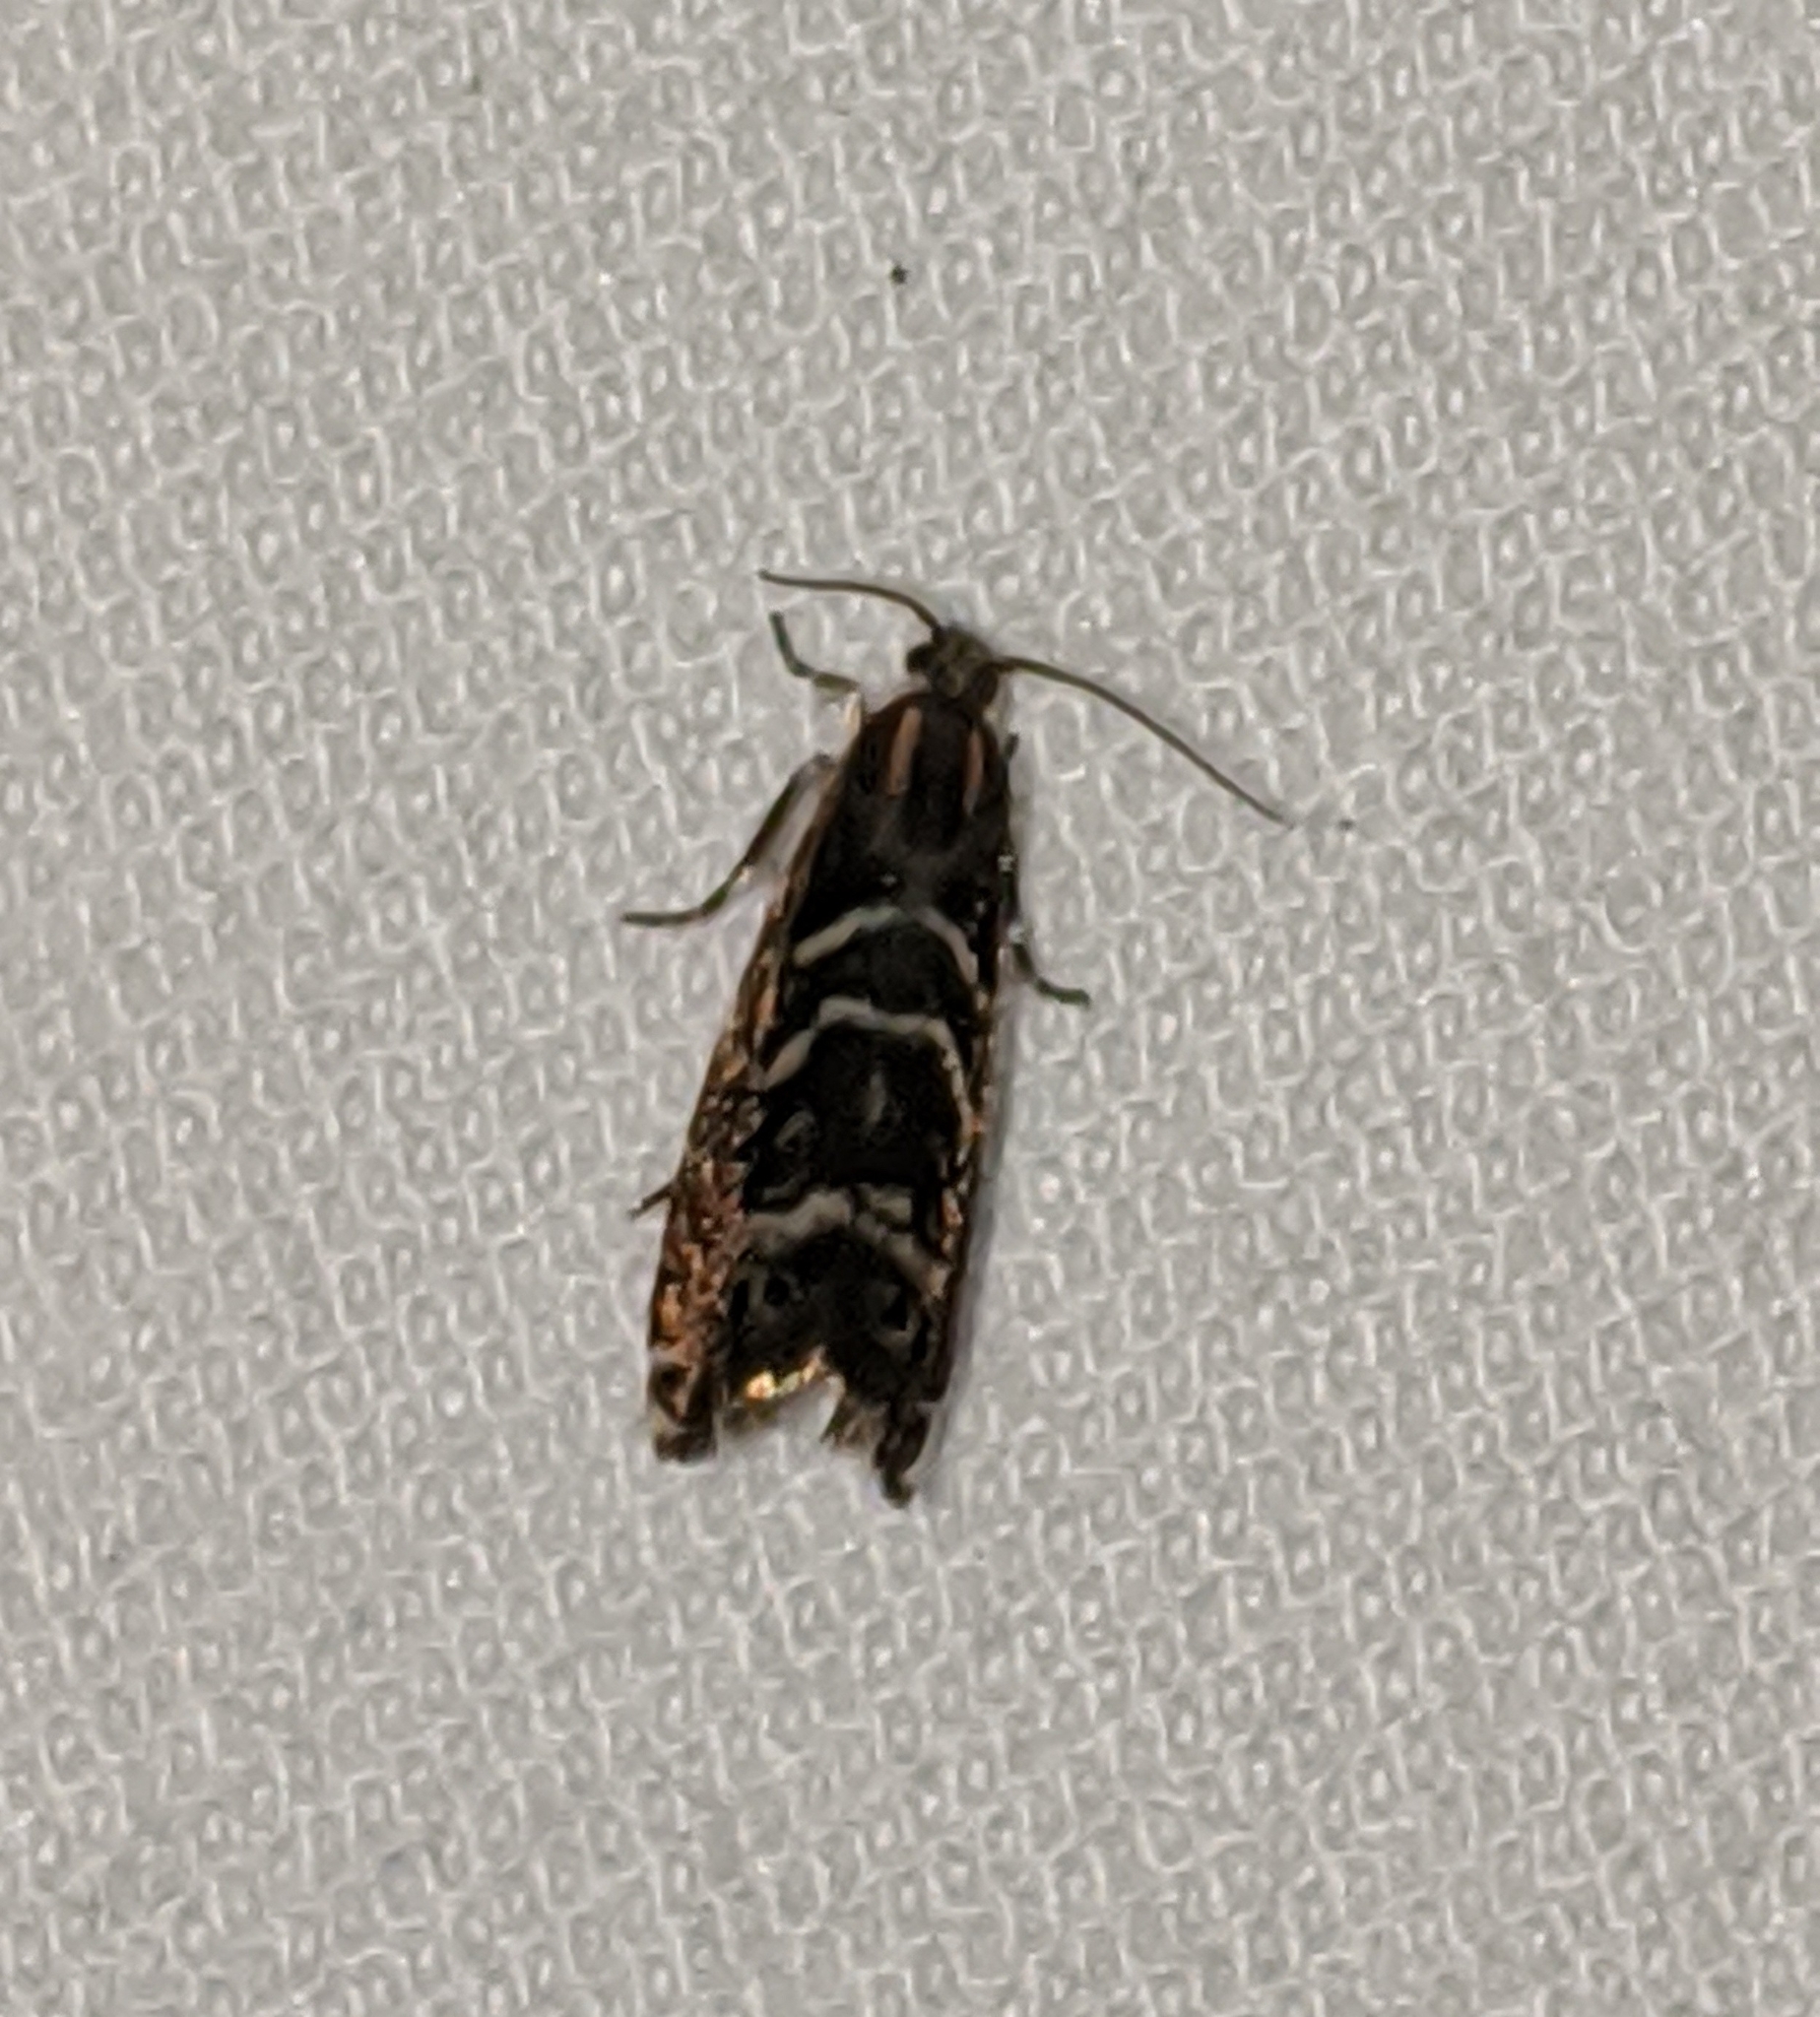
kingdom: Animalia
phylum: Arthropoda
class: Insecta
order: Lepidoptera
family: Tortricidae
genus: Thaumatographa
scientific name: Thaumatographa youngiella
